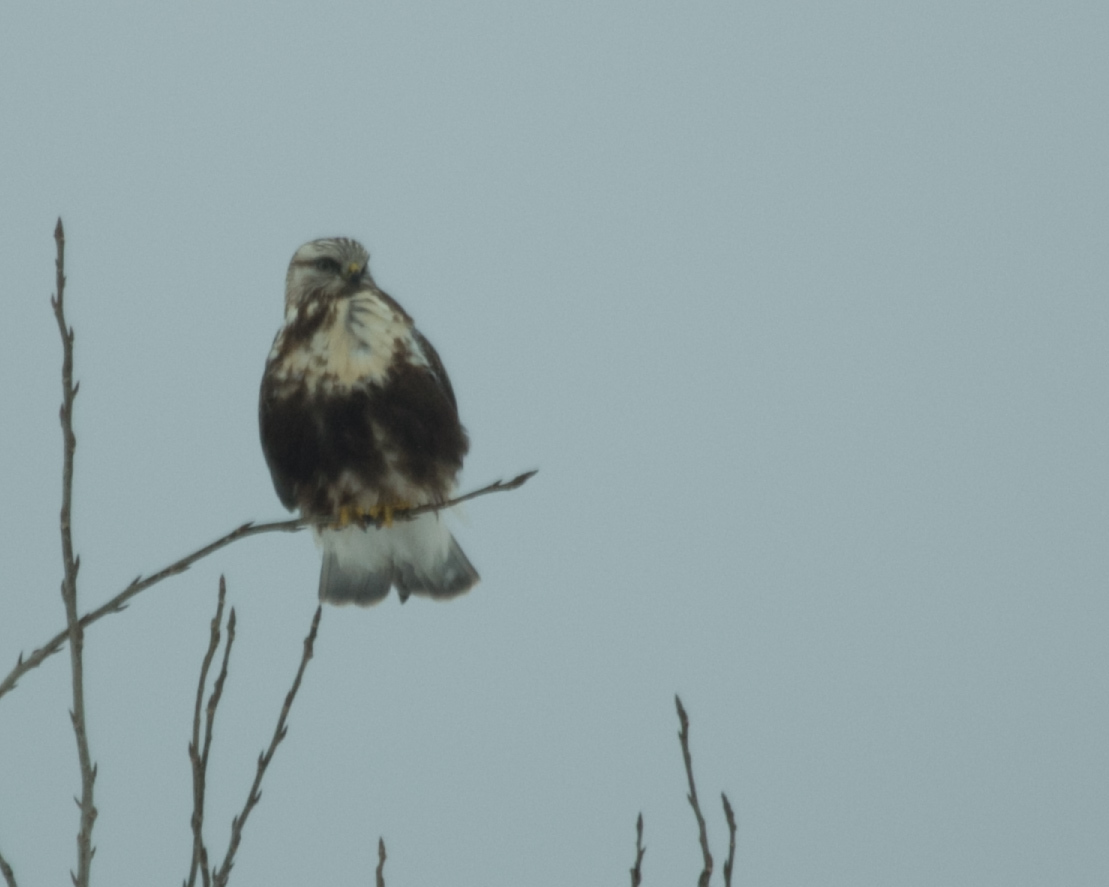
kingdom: Animalia
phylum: Chordata
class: Aves
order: Accipitriformes
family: Accipitridae
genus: Buteo
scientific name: Buteo lagopus
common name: Rough-legged buzzard
